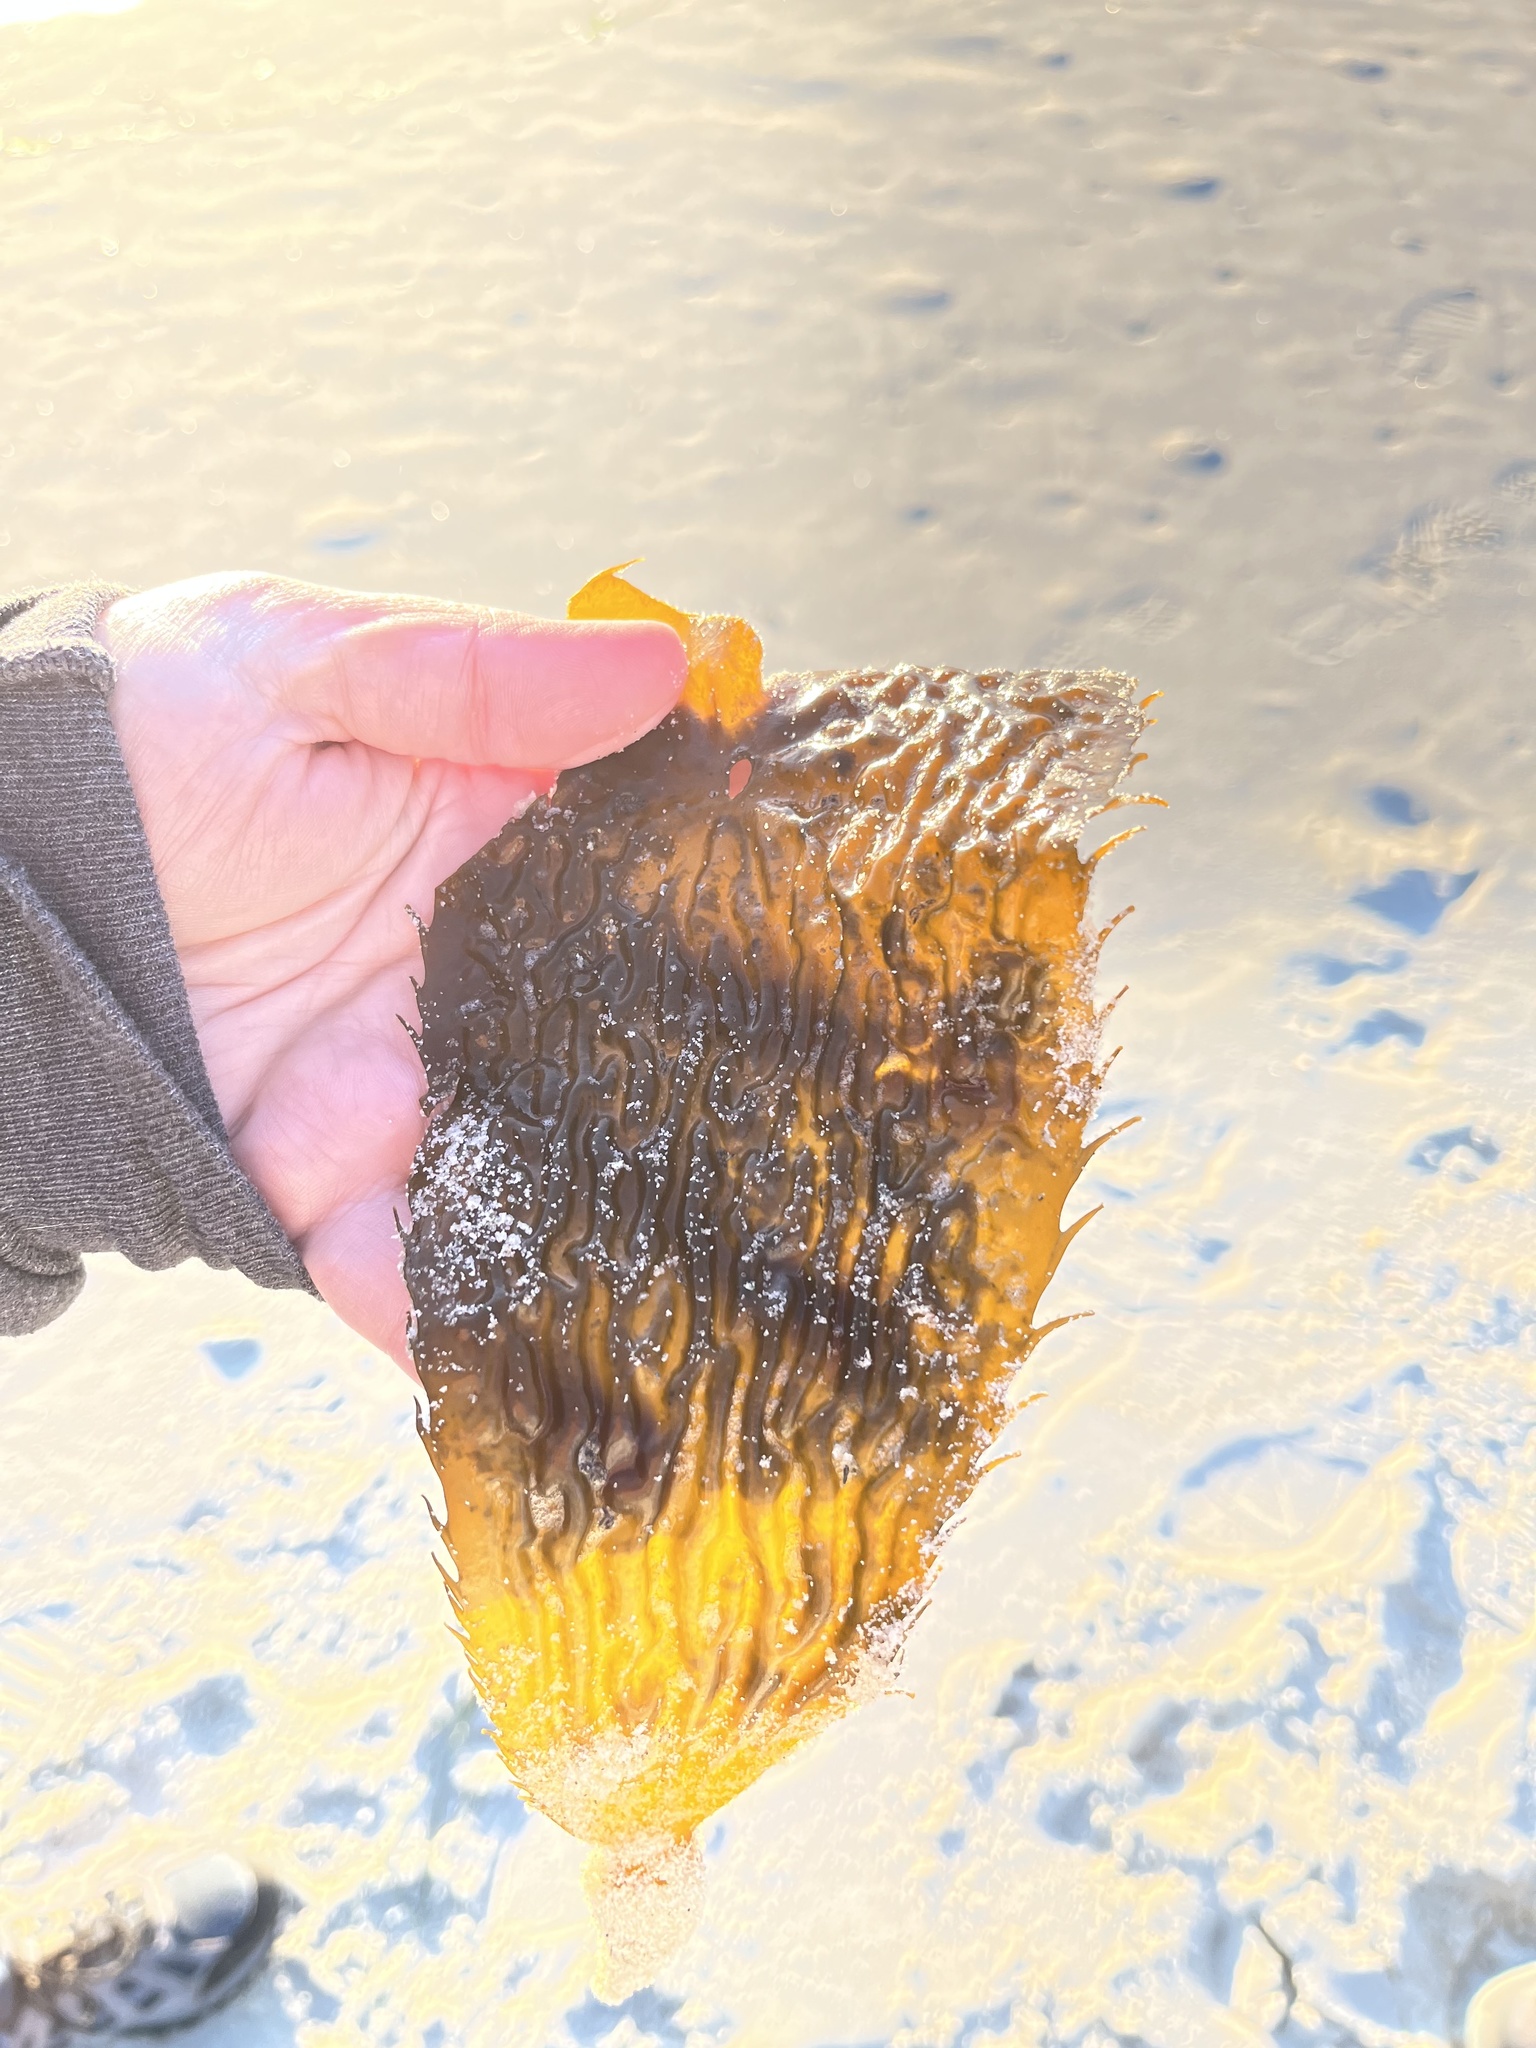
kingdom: Chromista
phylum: Ochrophyta
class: Phaeophyceae
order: Laminariales
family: Laminariaceae
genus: Macrocystis
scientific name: Macrocystis pyrifera
